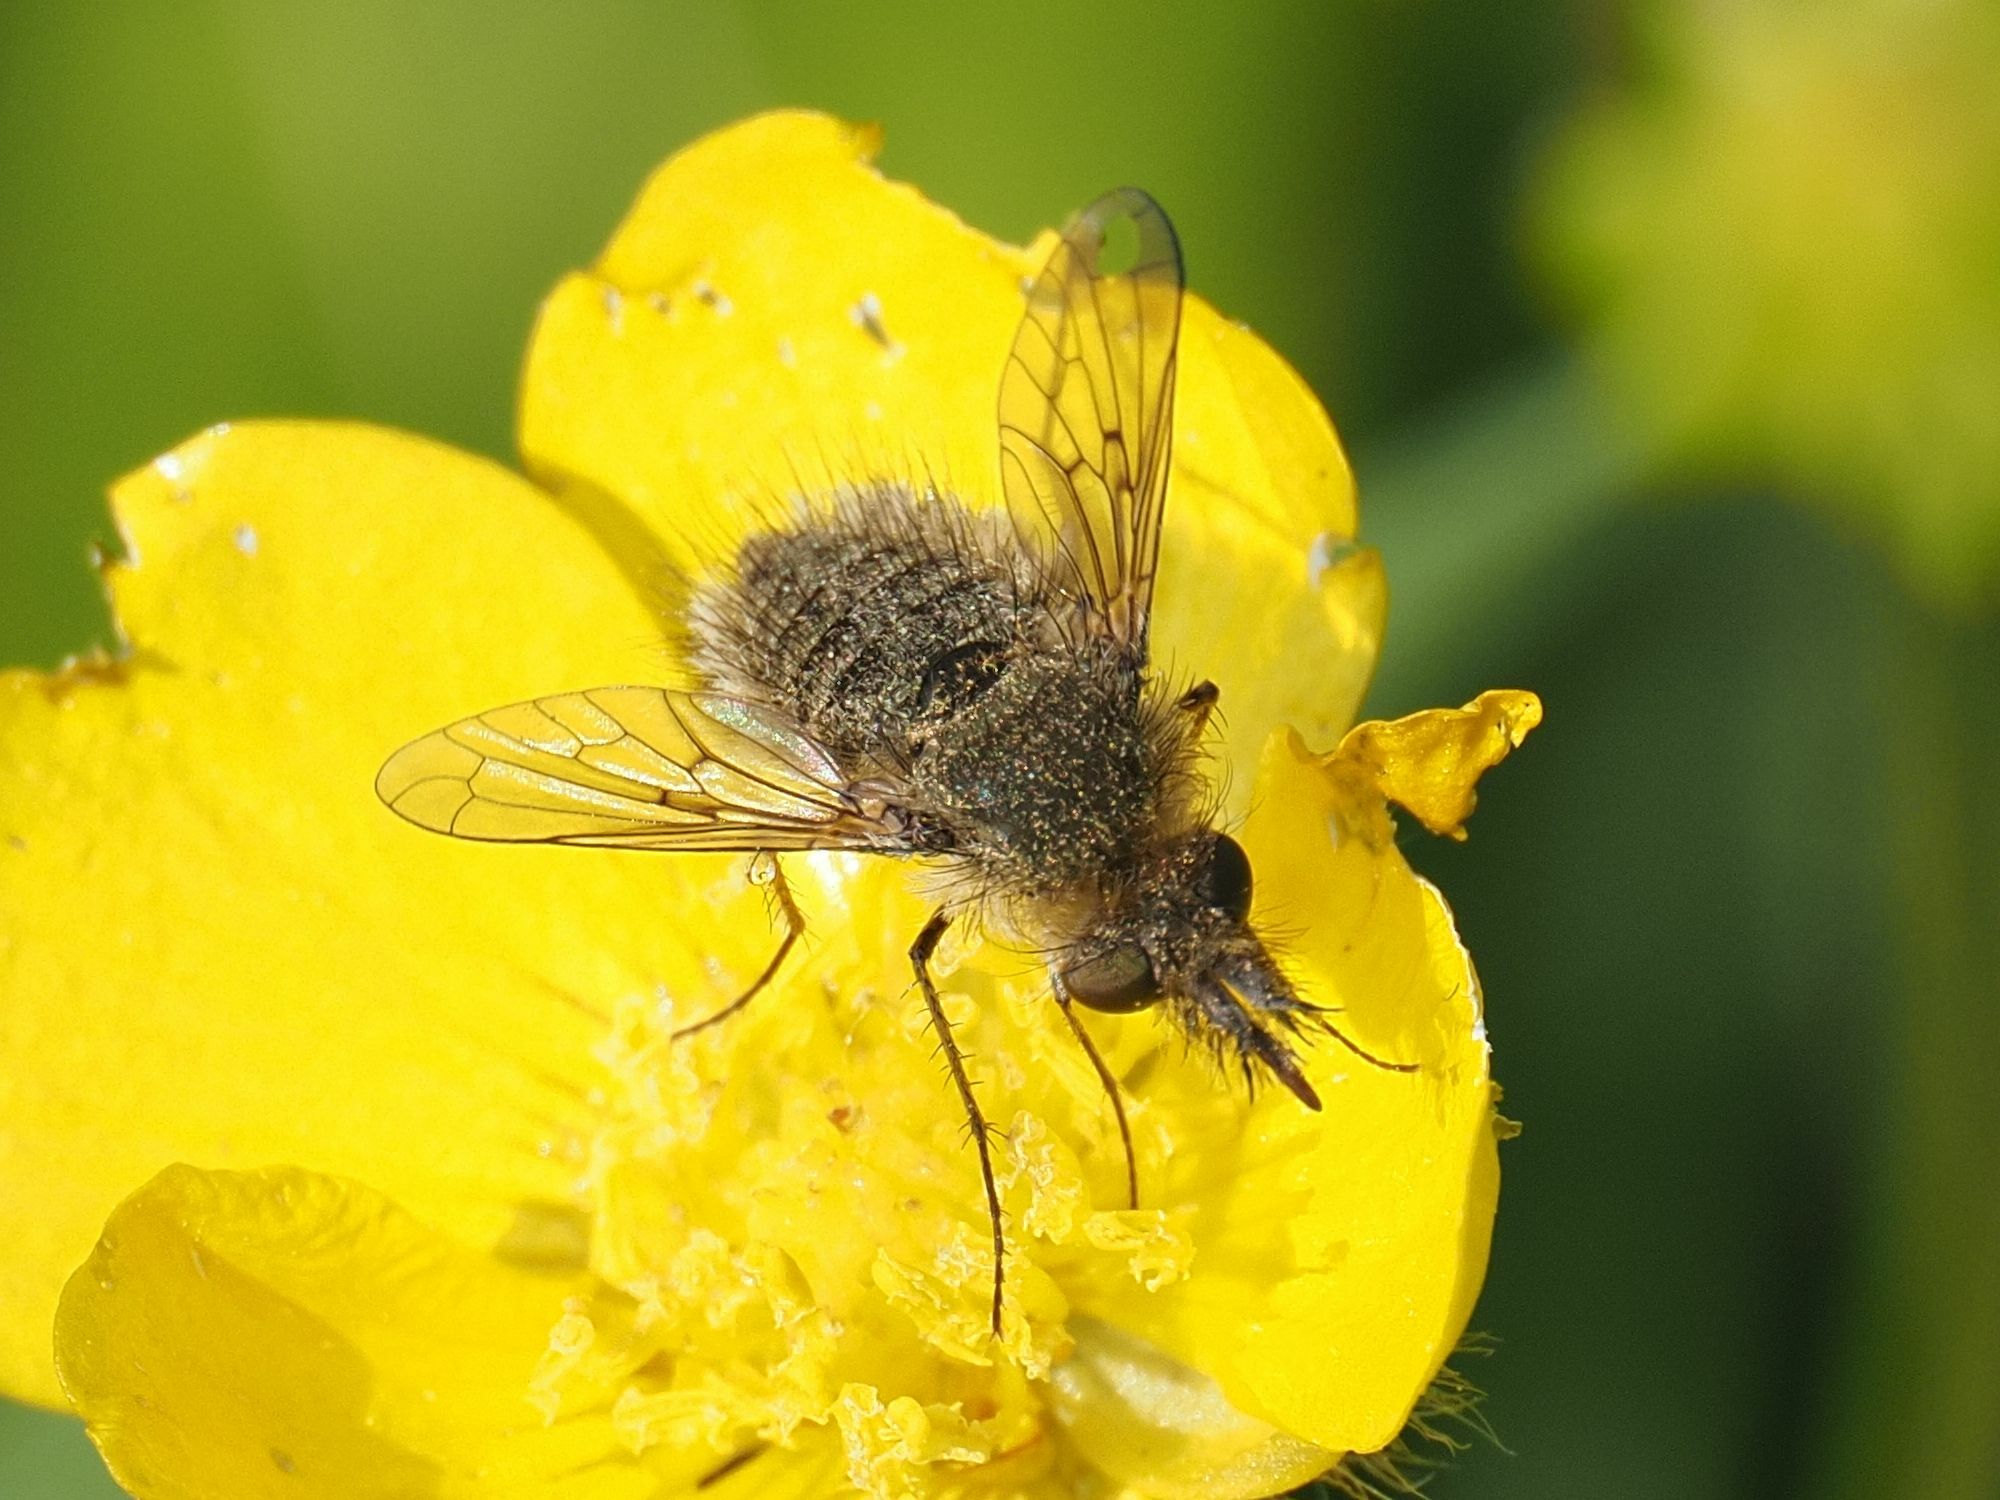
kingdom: Animalia
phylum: Arthropoda
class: Insecta
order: Diptera
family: Bombyliidae
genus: Conophorus
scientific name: Conophorus virescens
